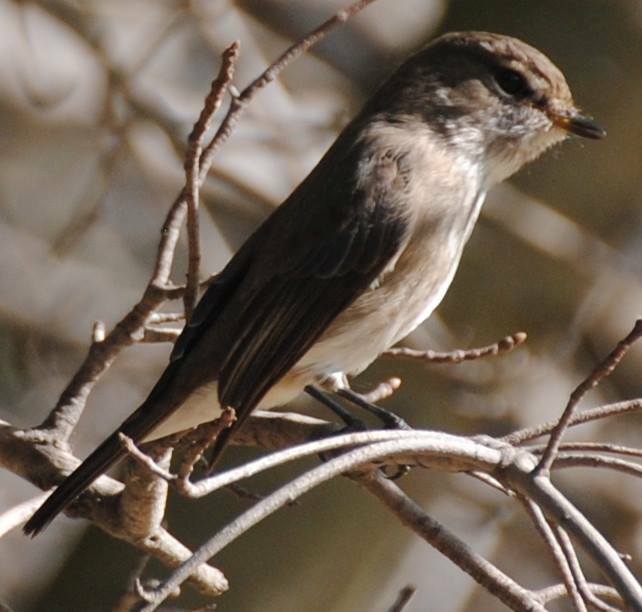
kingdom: Animalia
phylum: Chordata
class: Aves
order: Passeriformes
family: Muscicapidae
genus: Muscicapa
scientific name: Muscicapa adusta
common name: African dusky flycatcher
